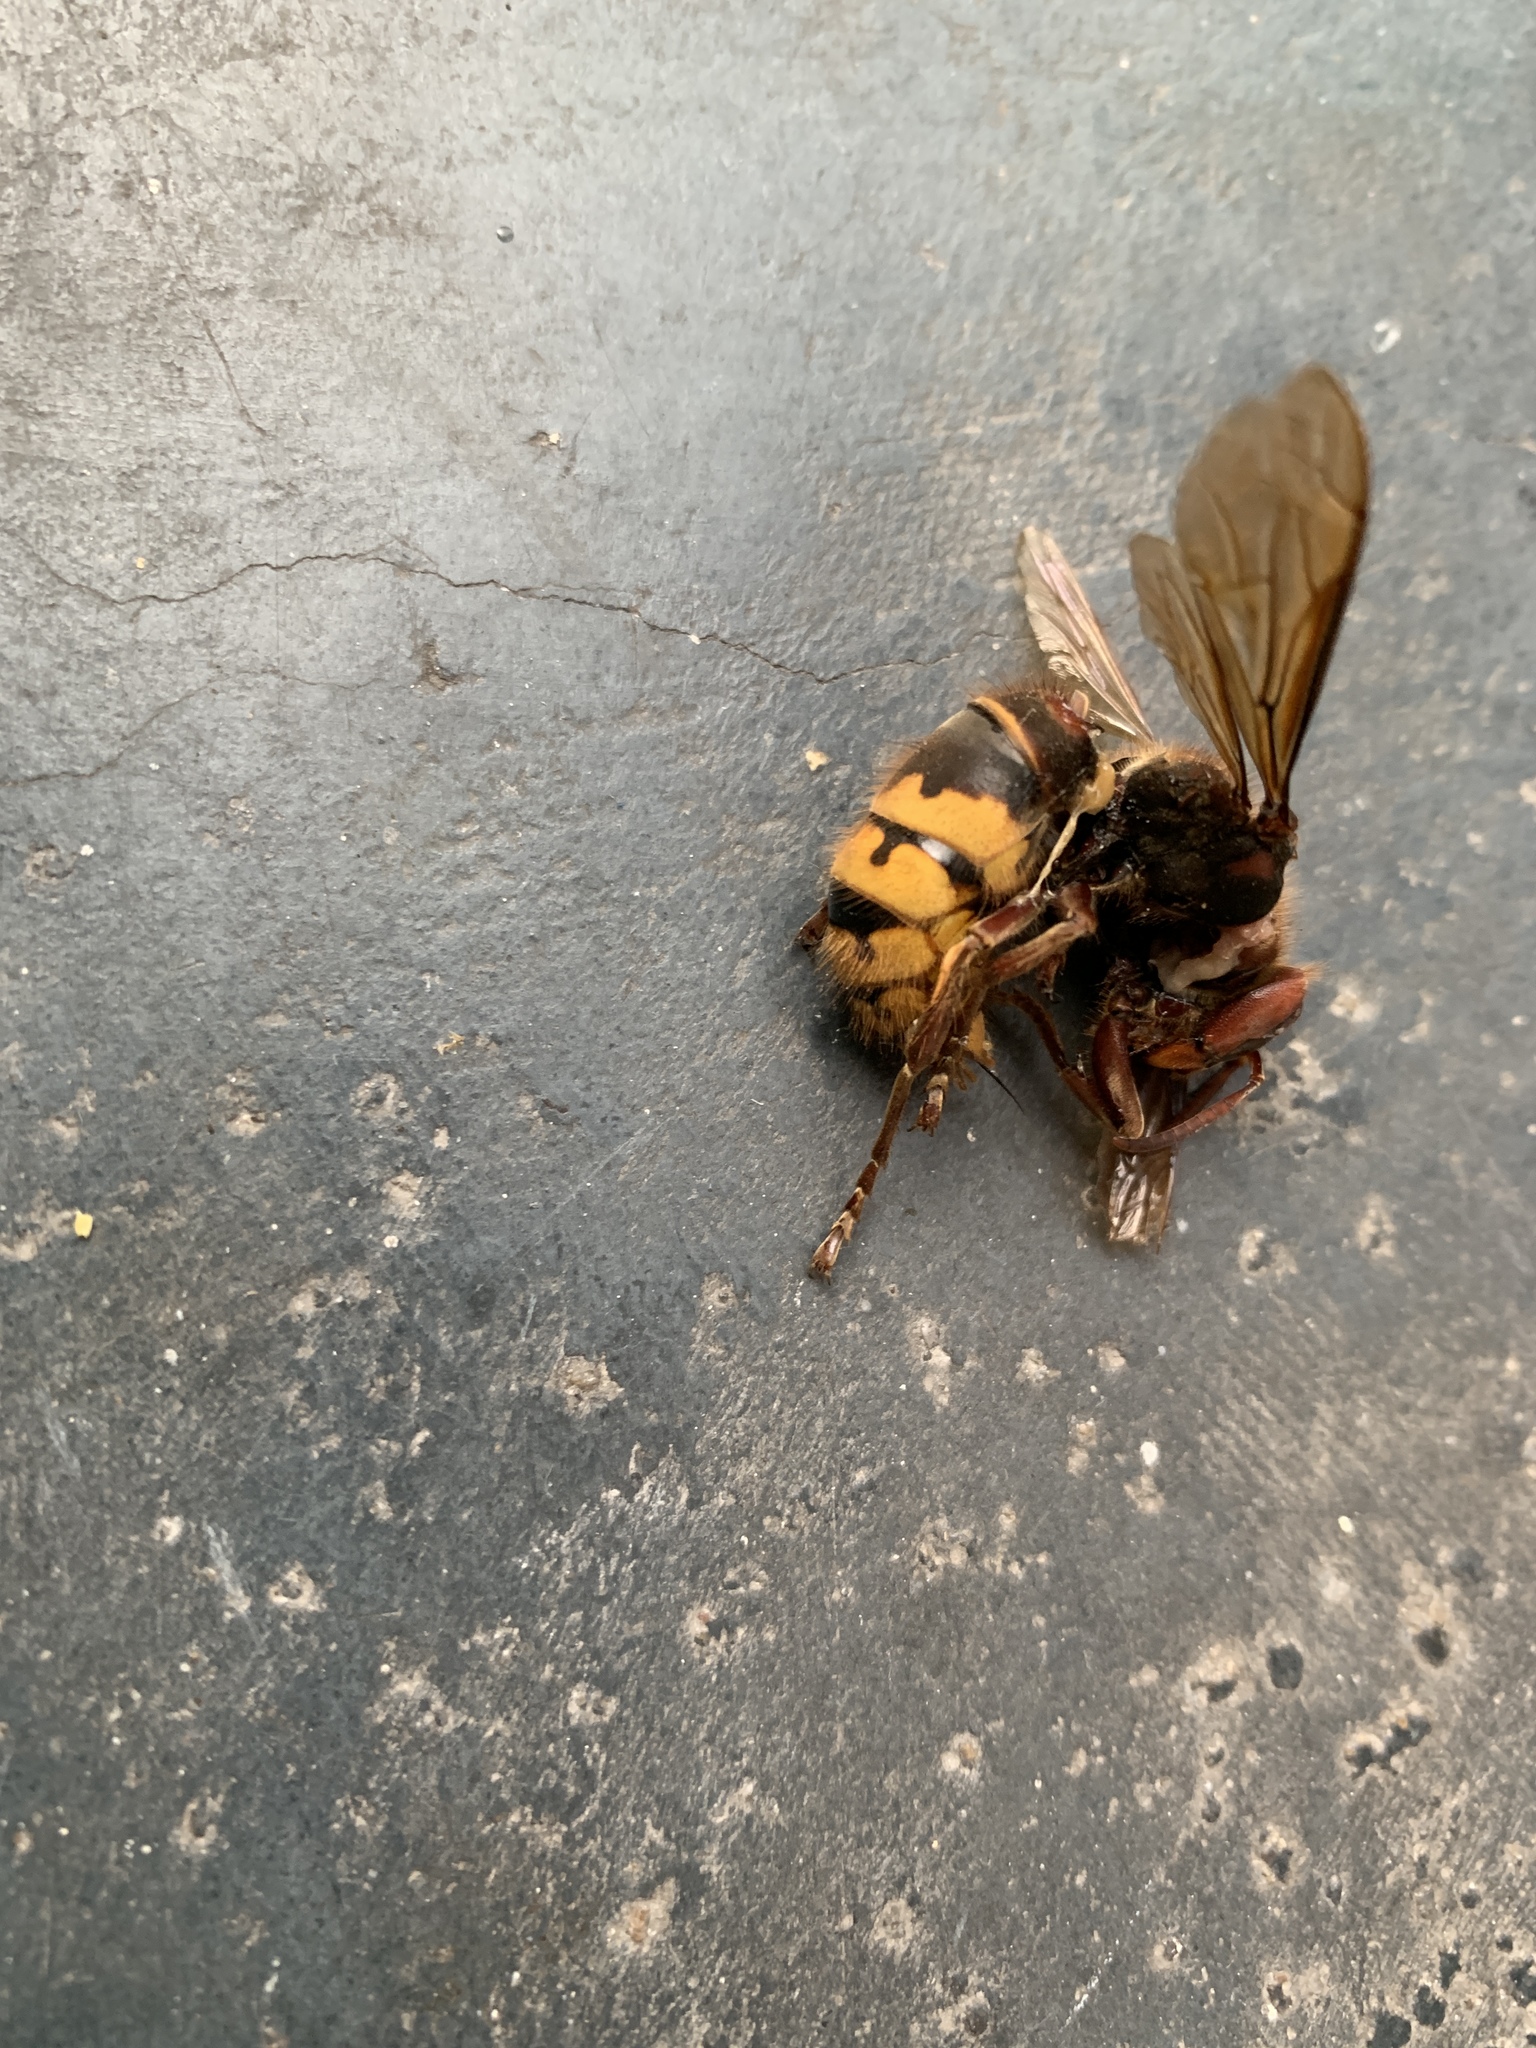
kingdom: Animalia
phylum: Arthropoda
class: Insecta
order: Hymenoptera
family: Vespidae
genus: Vespa
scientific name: Vespa crabro
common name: Hornet
